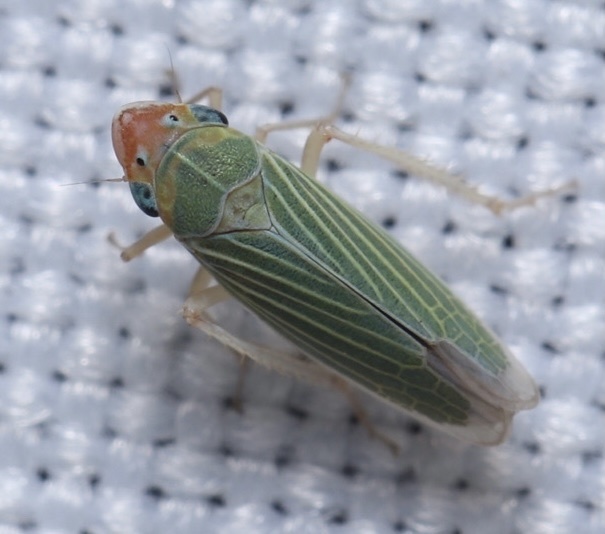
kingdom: Animalia
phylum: Arthropoda
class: Insecta
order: Hemiptera
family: Cicadellidae
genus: Xyphon
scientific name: Xyphon nudum
